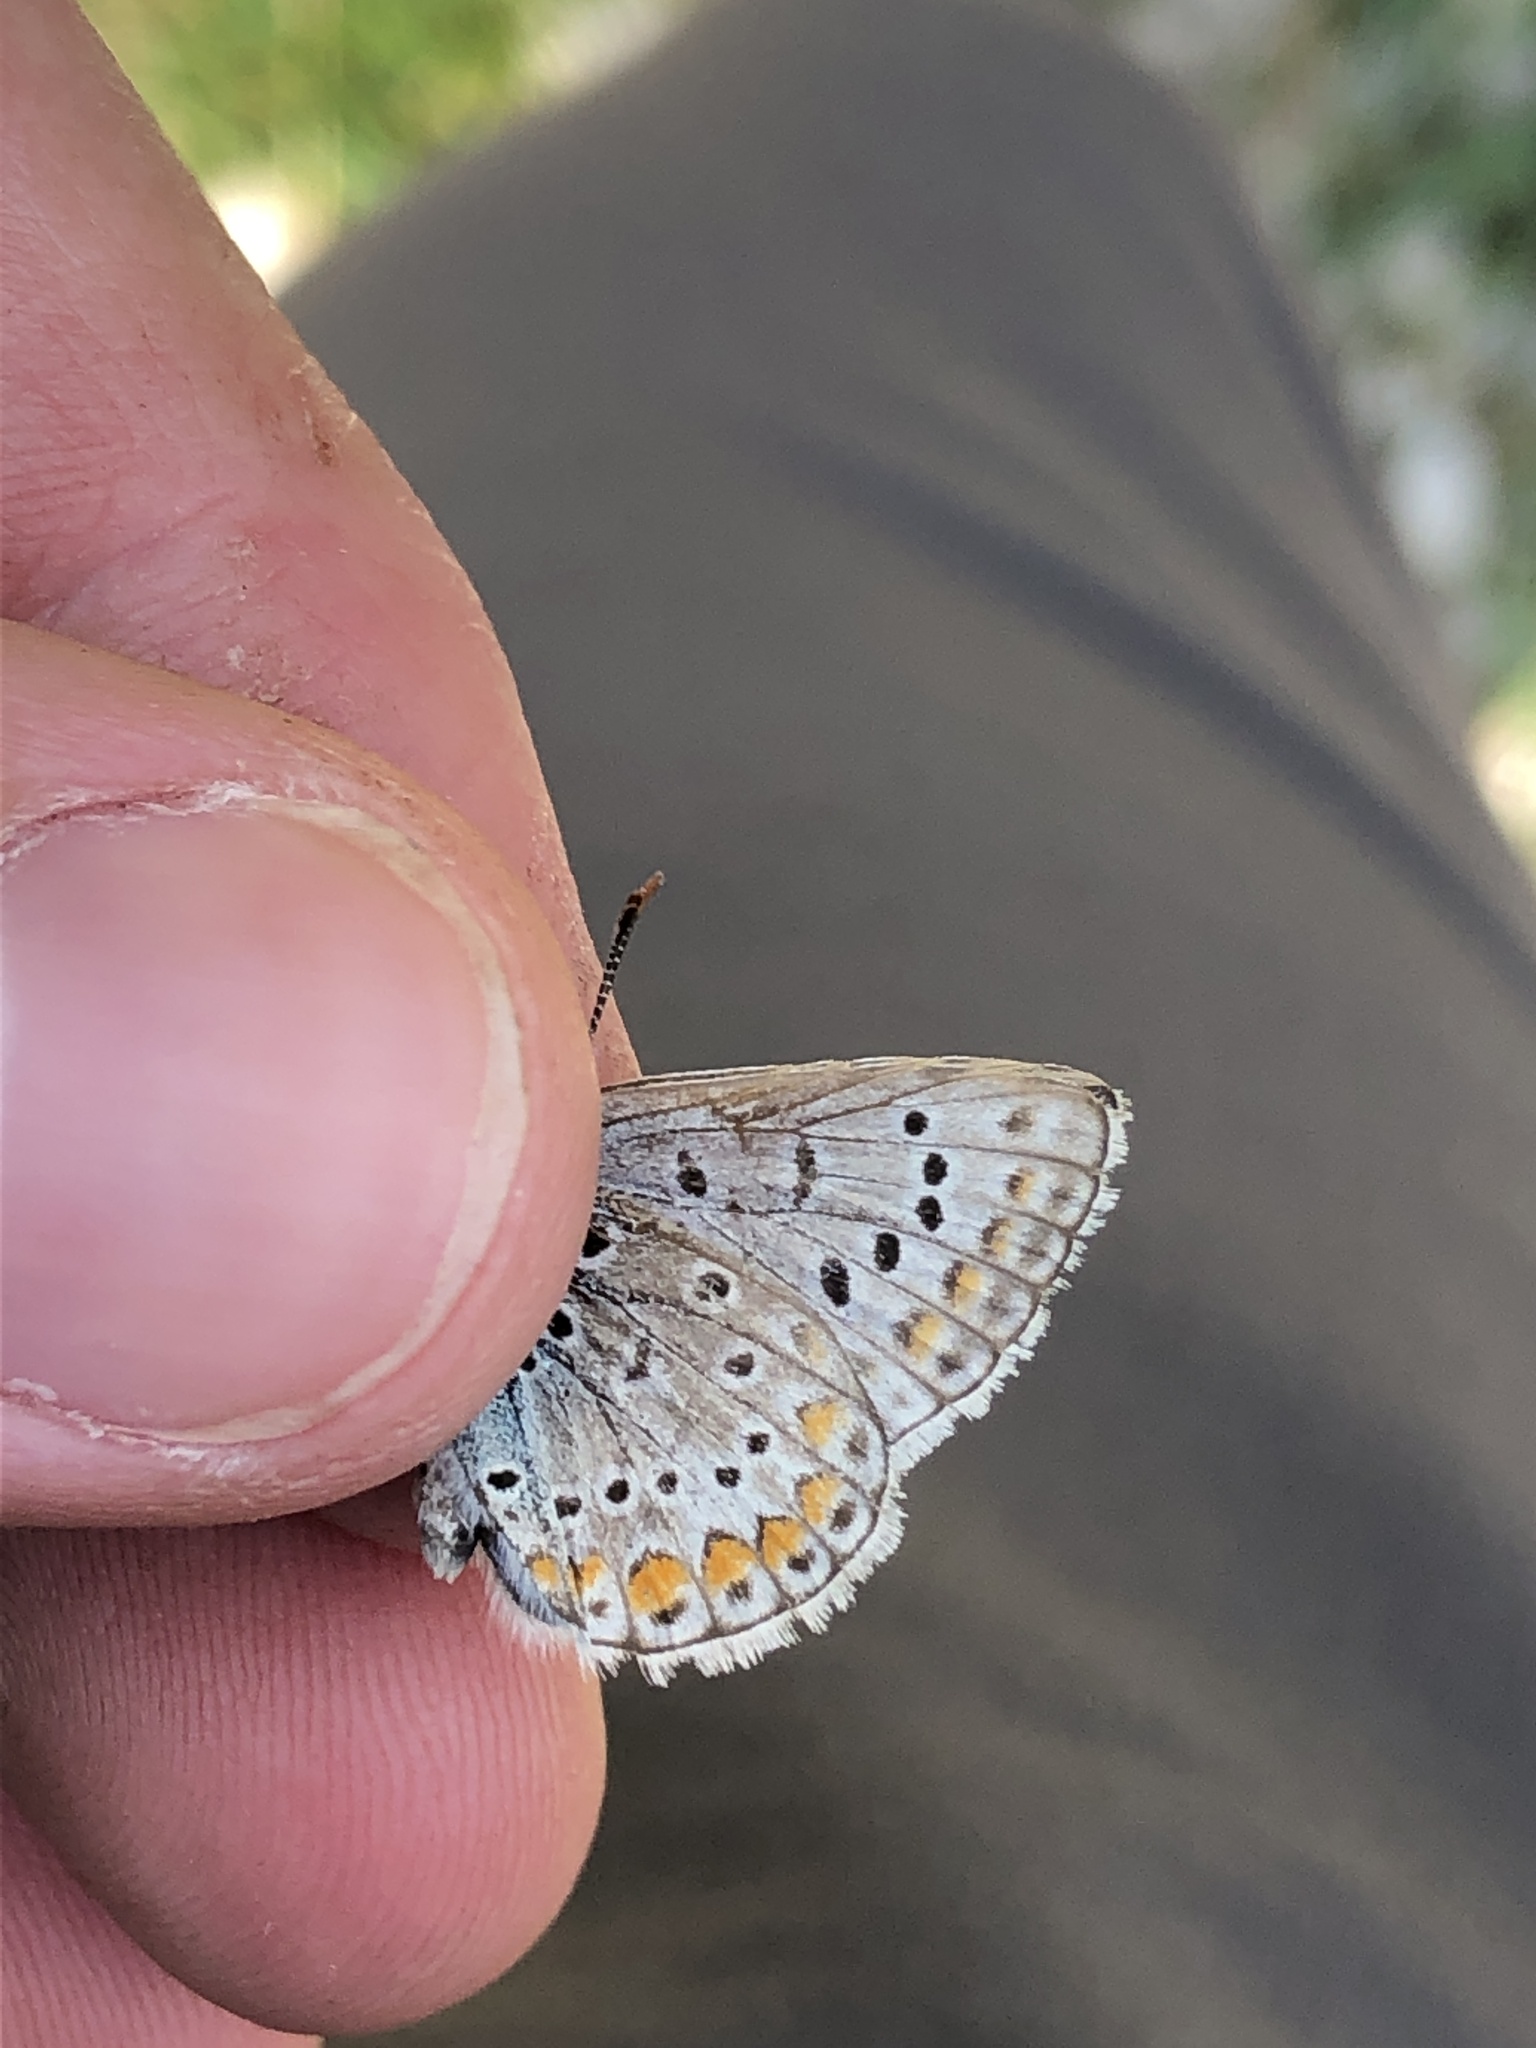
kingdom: Animalia
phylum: Arthropoda
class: Insecta
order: Lepidoptera
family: Lycaenidae
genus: Polyommatus
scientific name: Polyommatus icarus
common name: Common blue
